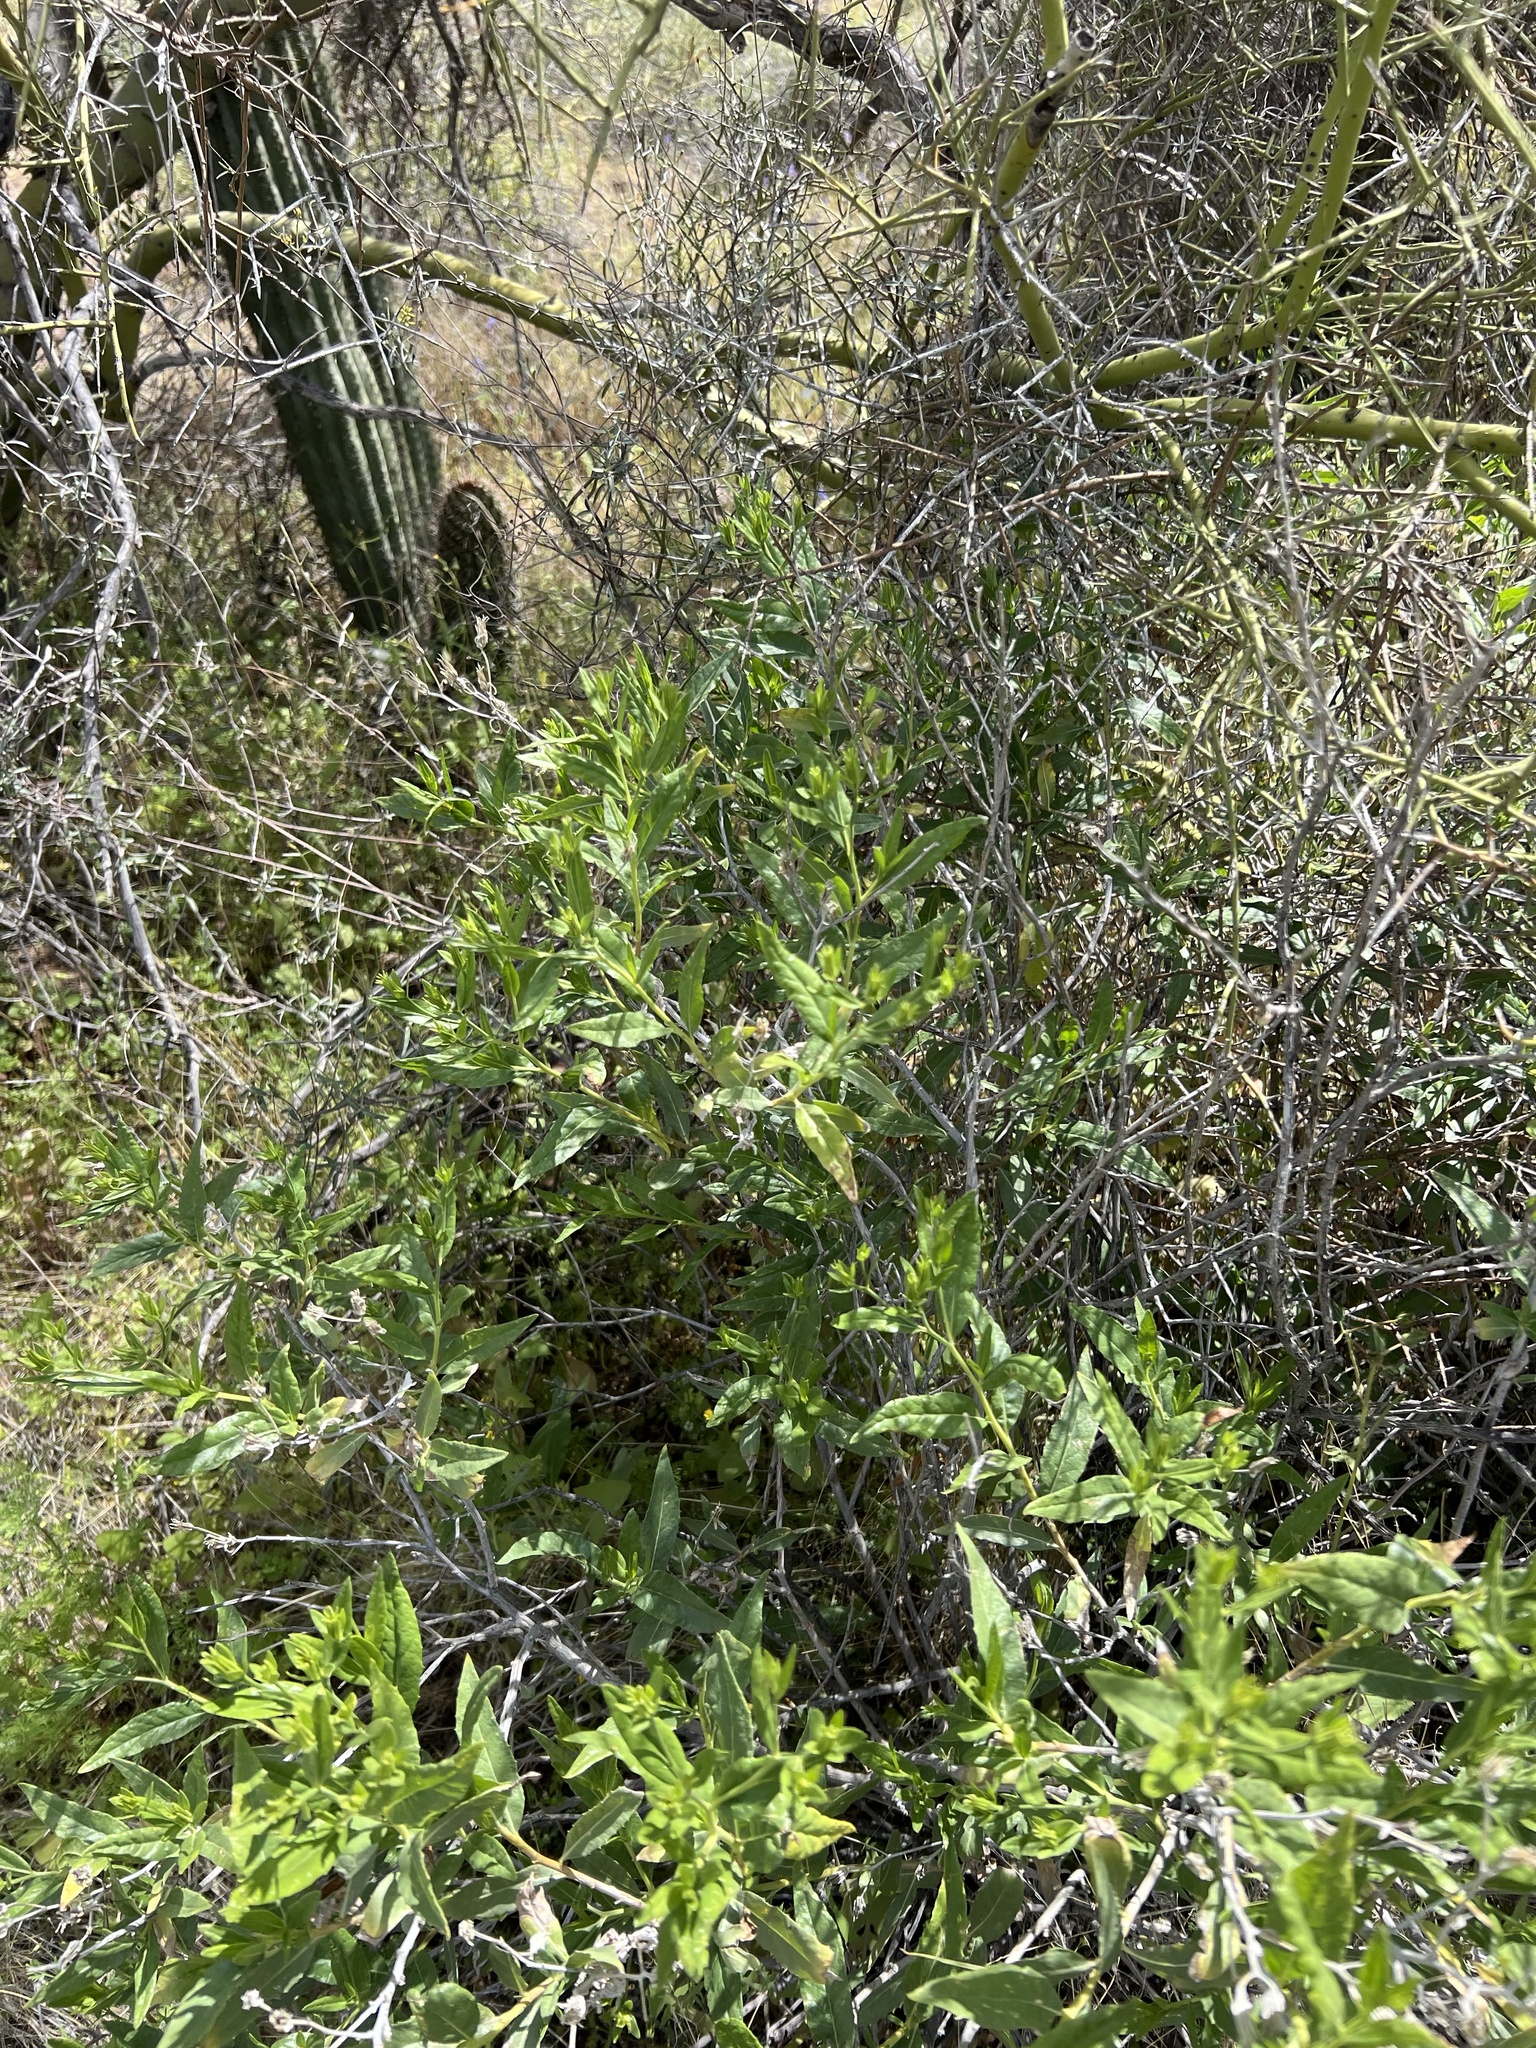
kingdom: Plantae
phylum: Tracheophyta
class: Magnoliopsida
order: Asterales
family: Asteraceae
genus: Trixis
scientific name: Trixis californica
